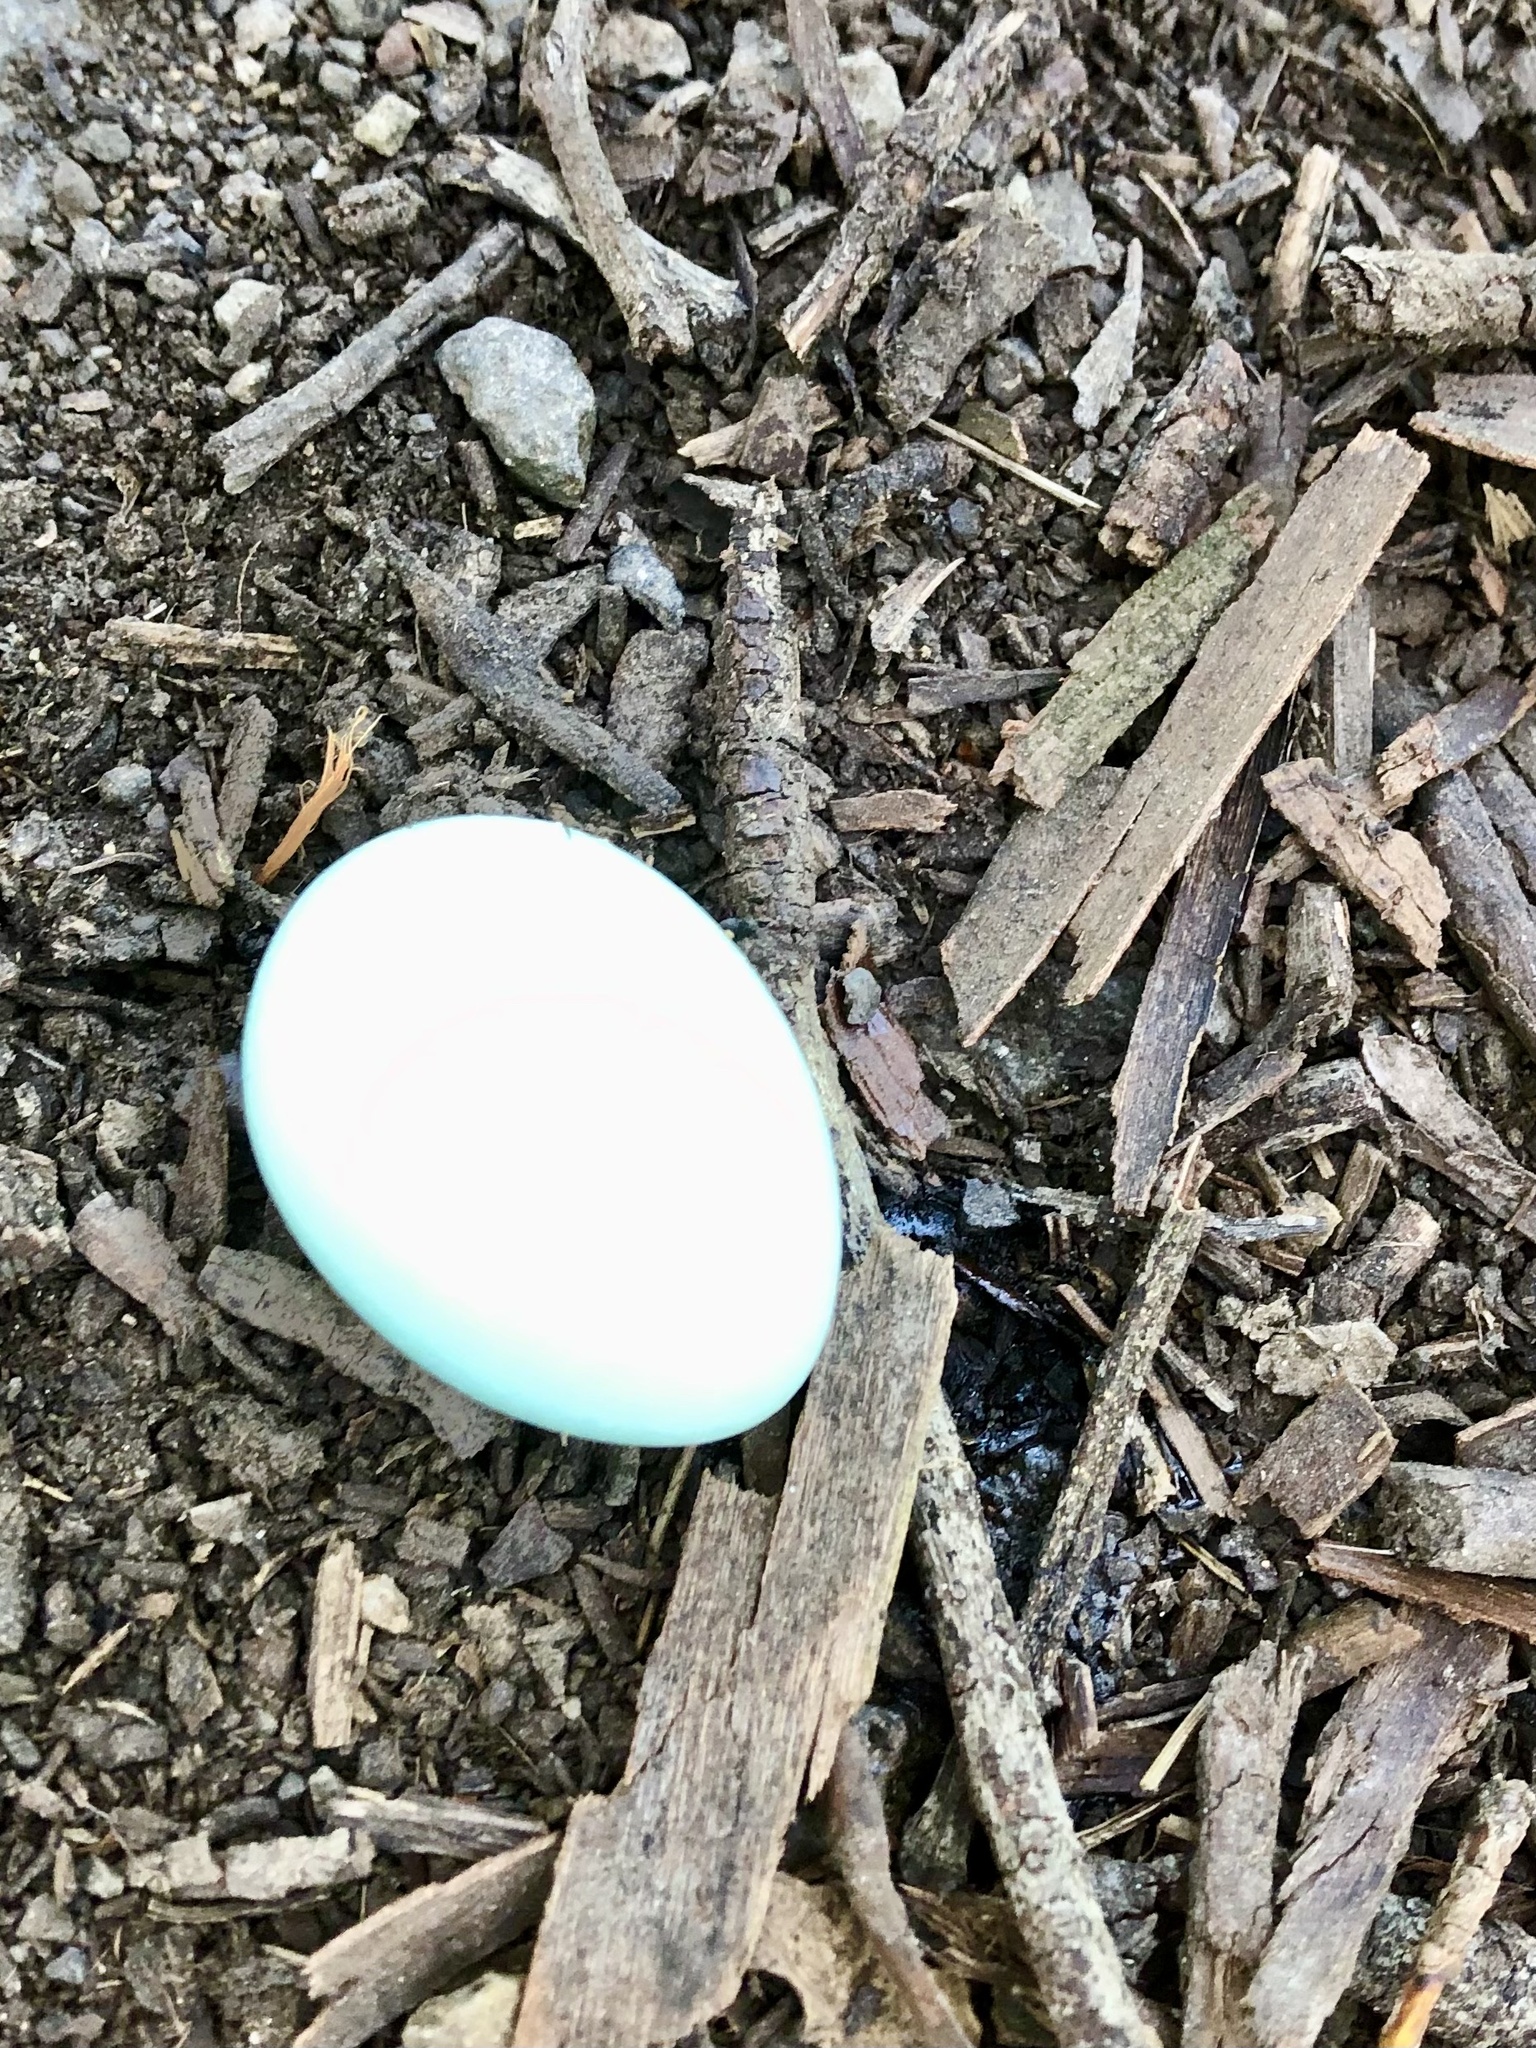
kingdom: Animalia
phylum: Chordata
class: Aves
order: Passeriformes
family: Turdidae
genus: Turdus
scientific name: Turdus migratorius
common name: American robin
